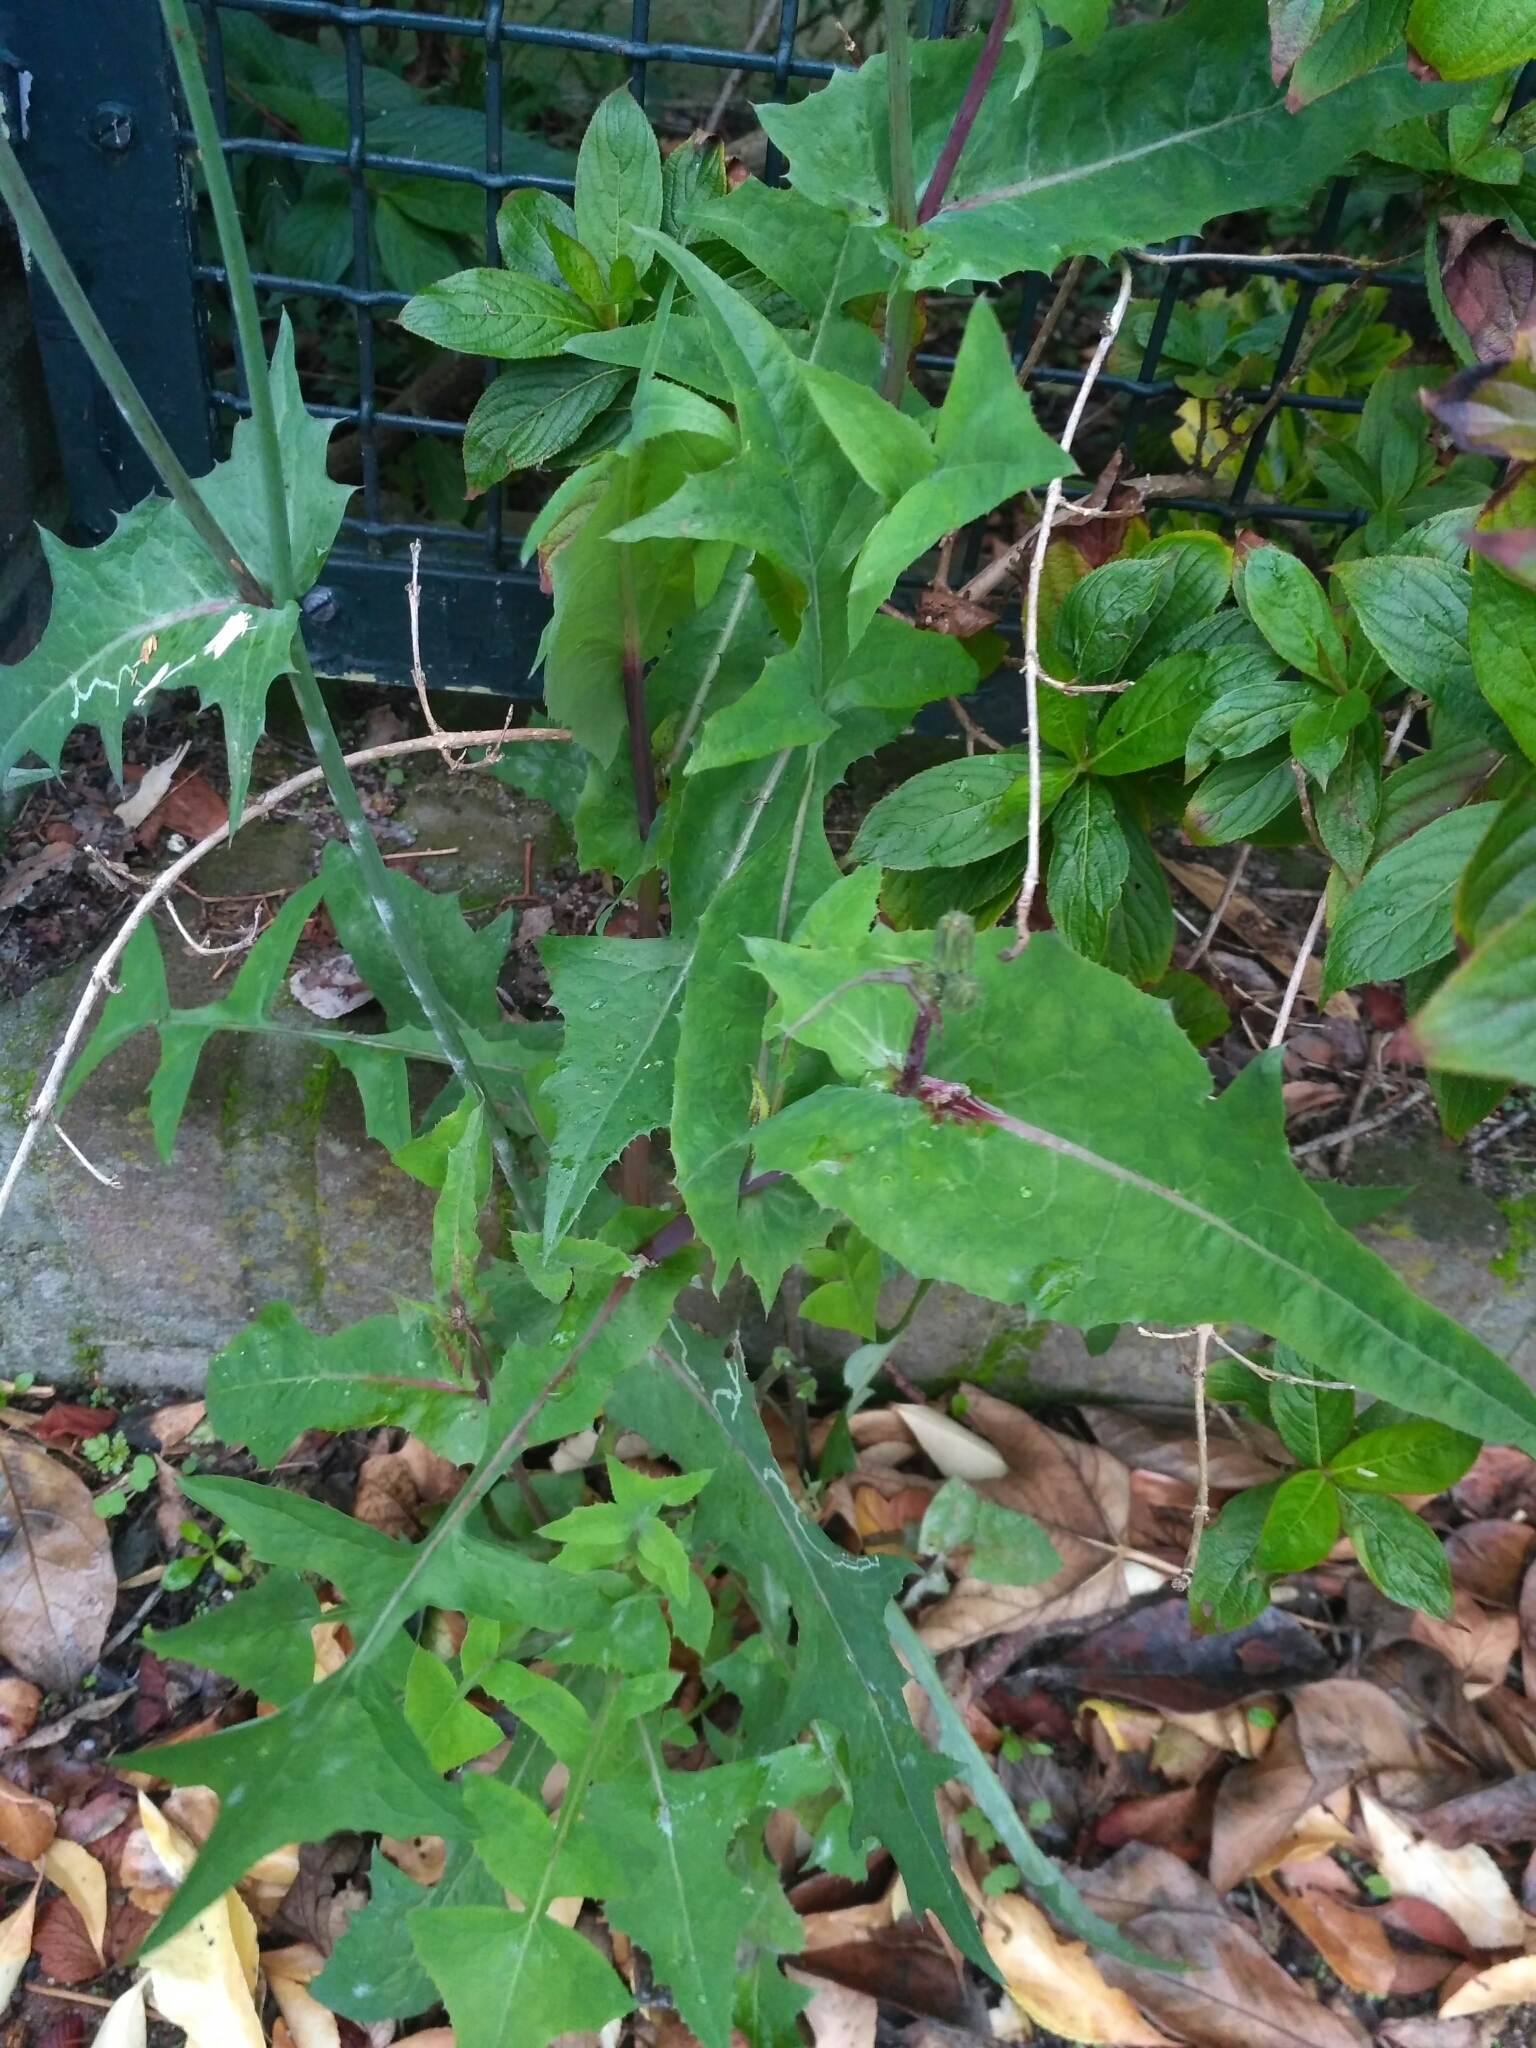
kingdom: Plantae
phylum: Tracheophyta
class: Magnoliopsida
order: Asterales
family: Asteraceae
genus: Sonchus
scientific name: Sonchus oleraceus
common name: Common sowthistle
